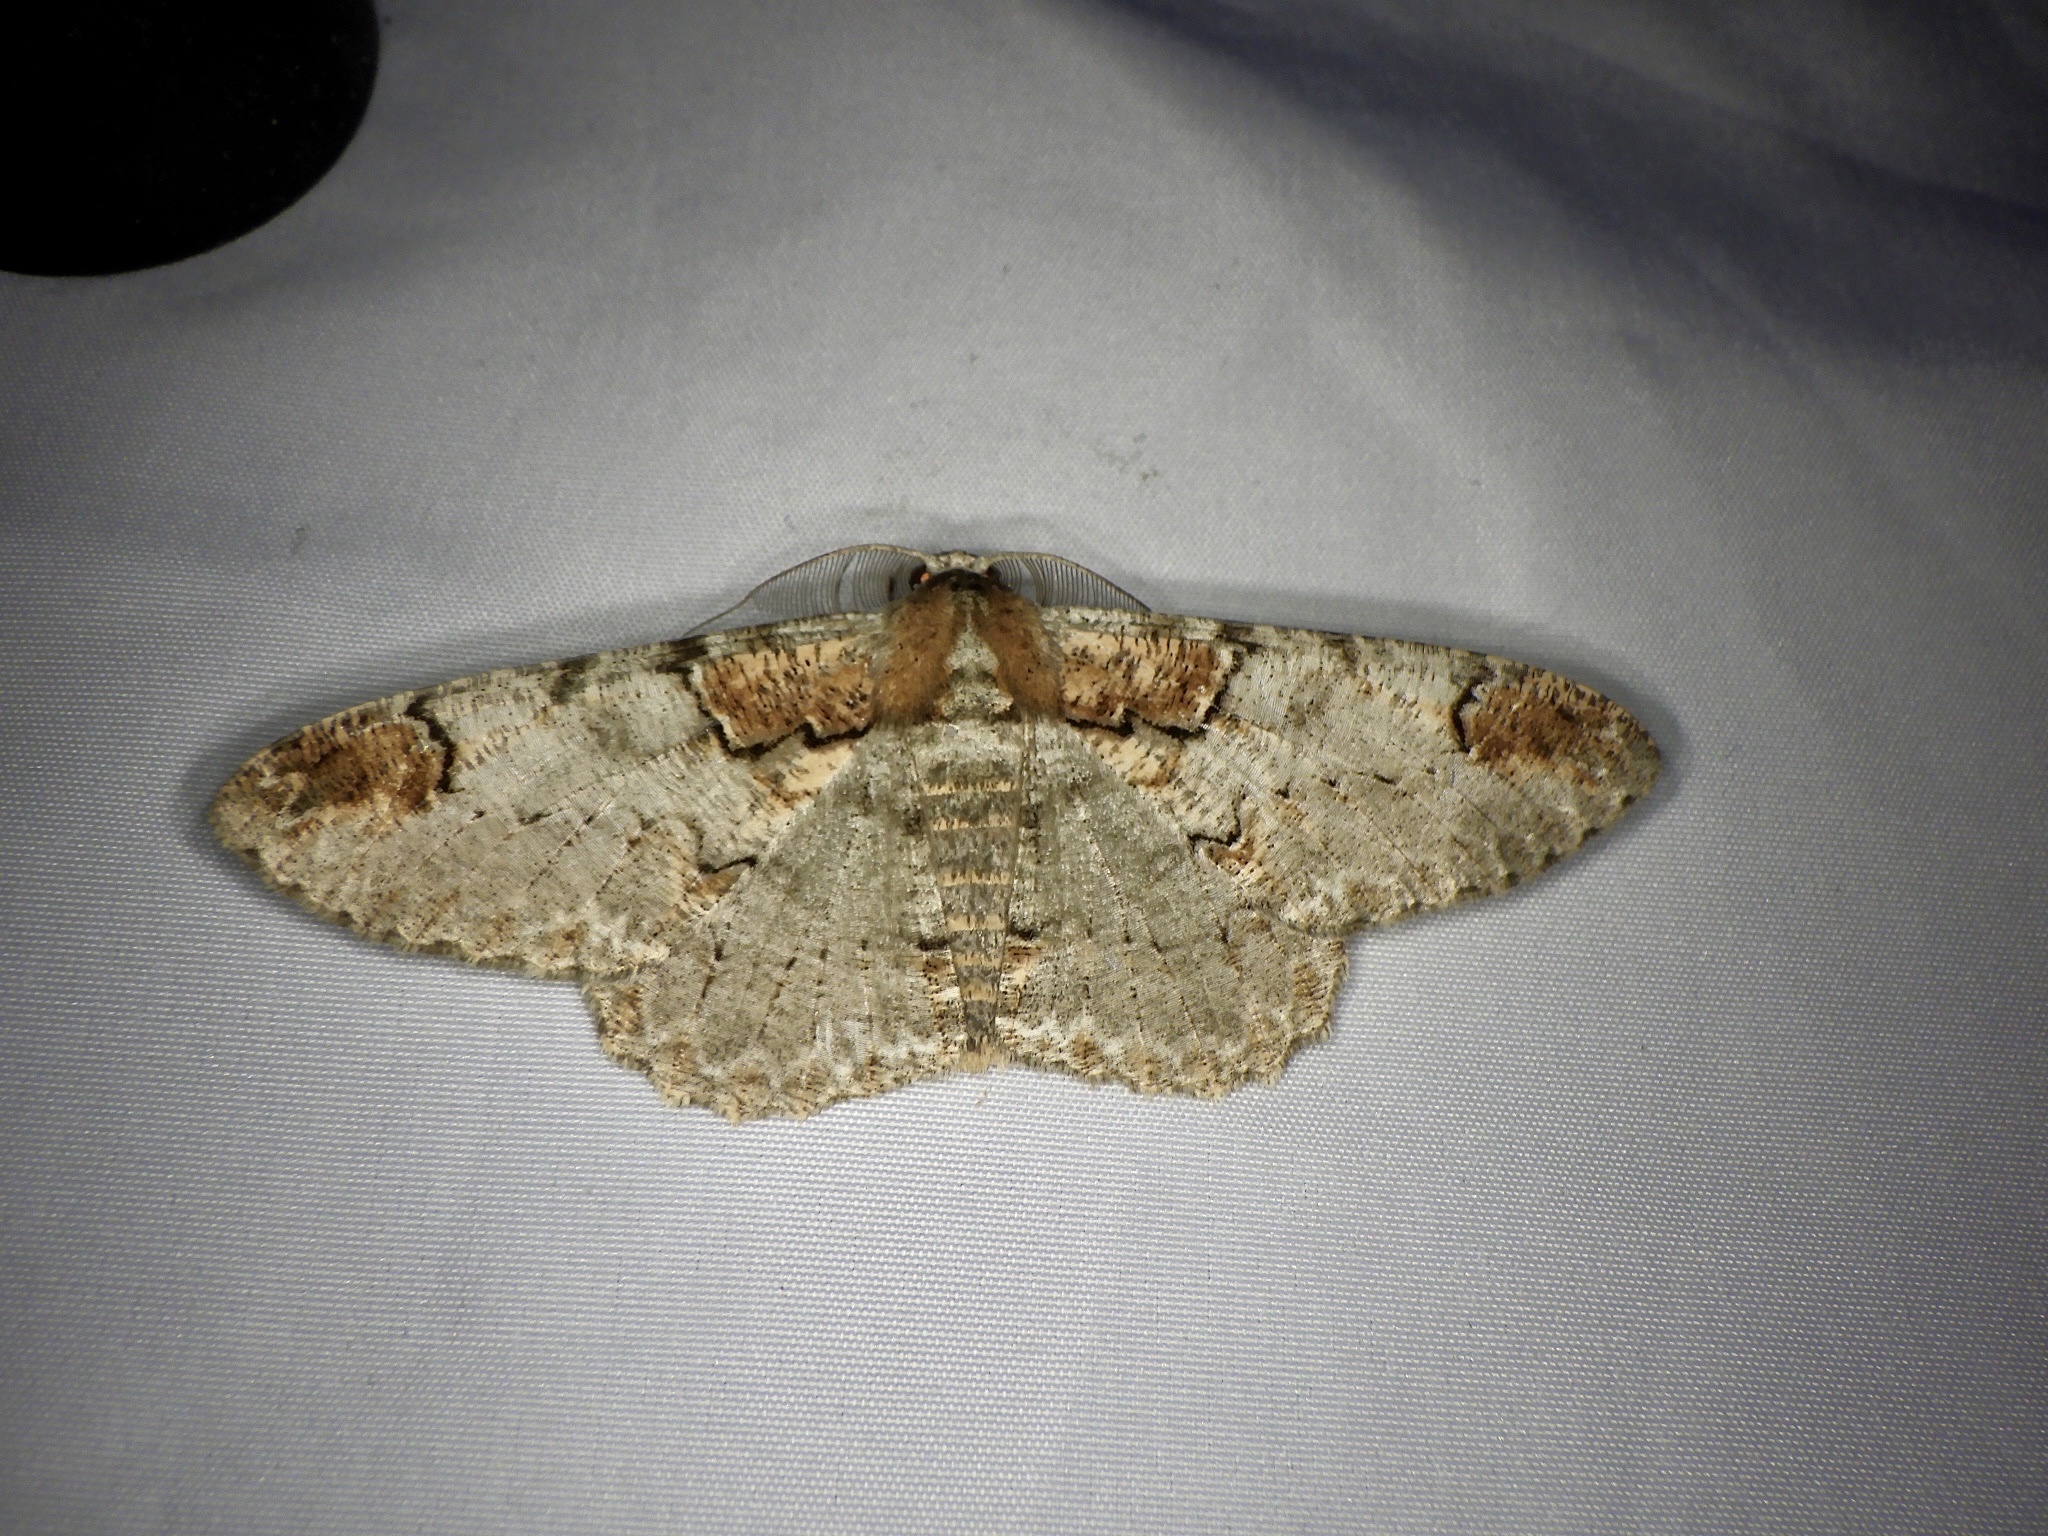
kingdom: Animalia
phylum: Arthropoda
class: Insecta
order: Lepidoptera
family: Geometridae
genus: Amraica
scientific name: Amraica superans
